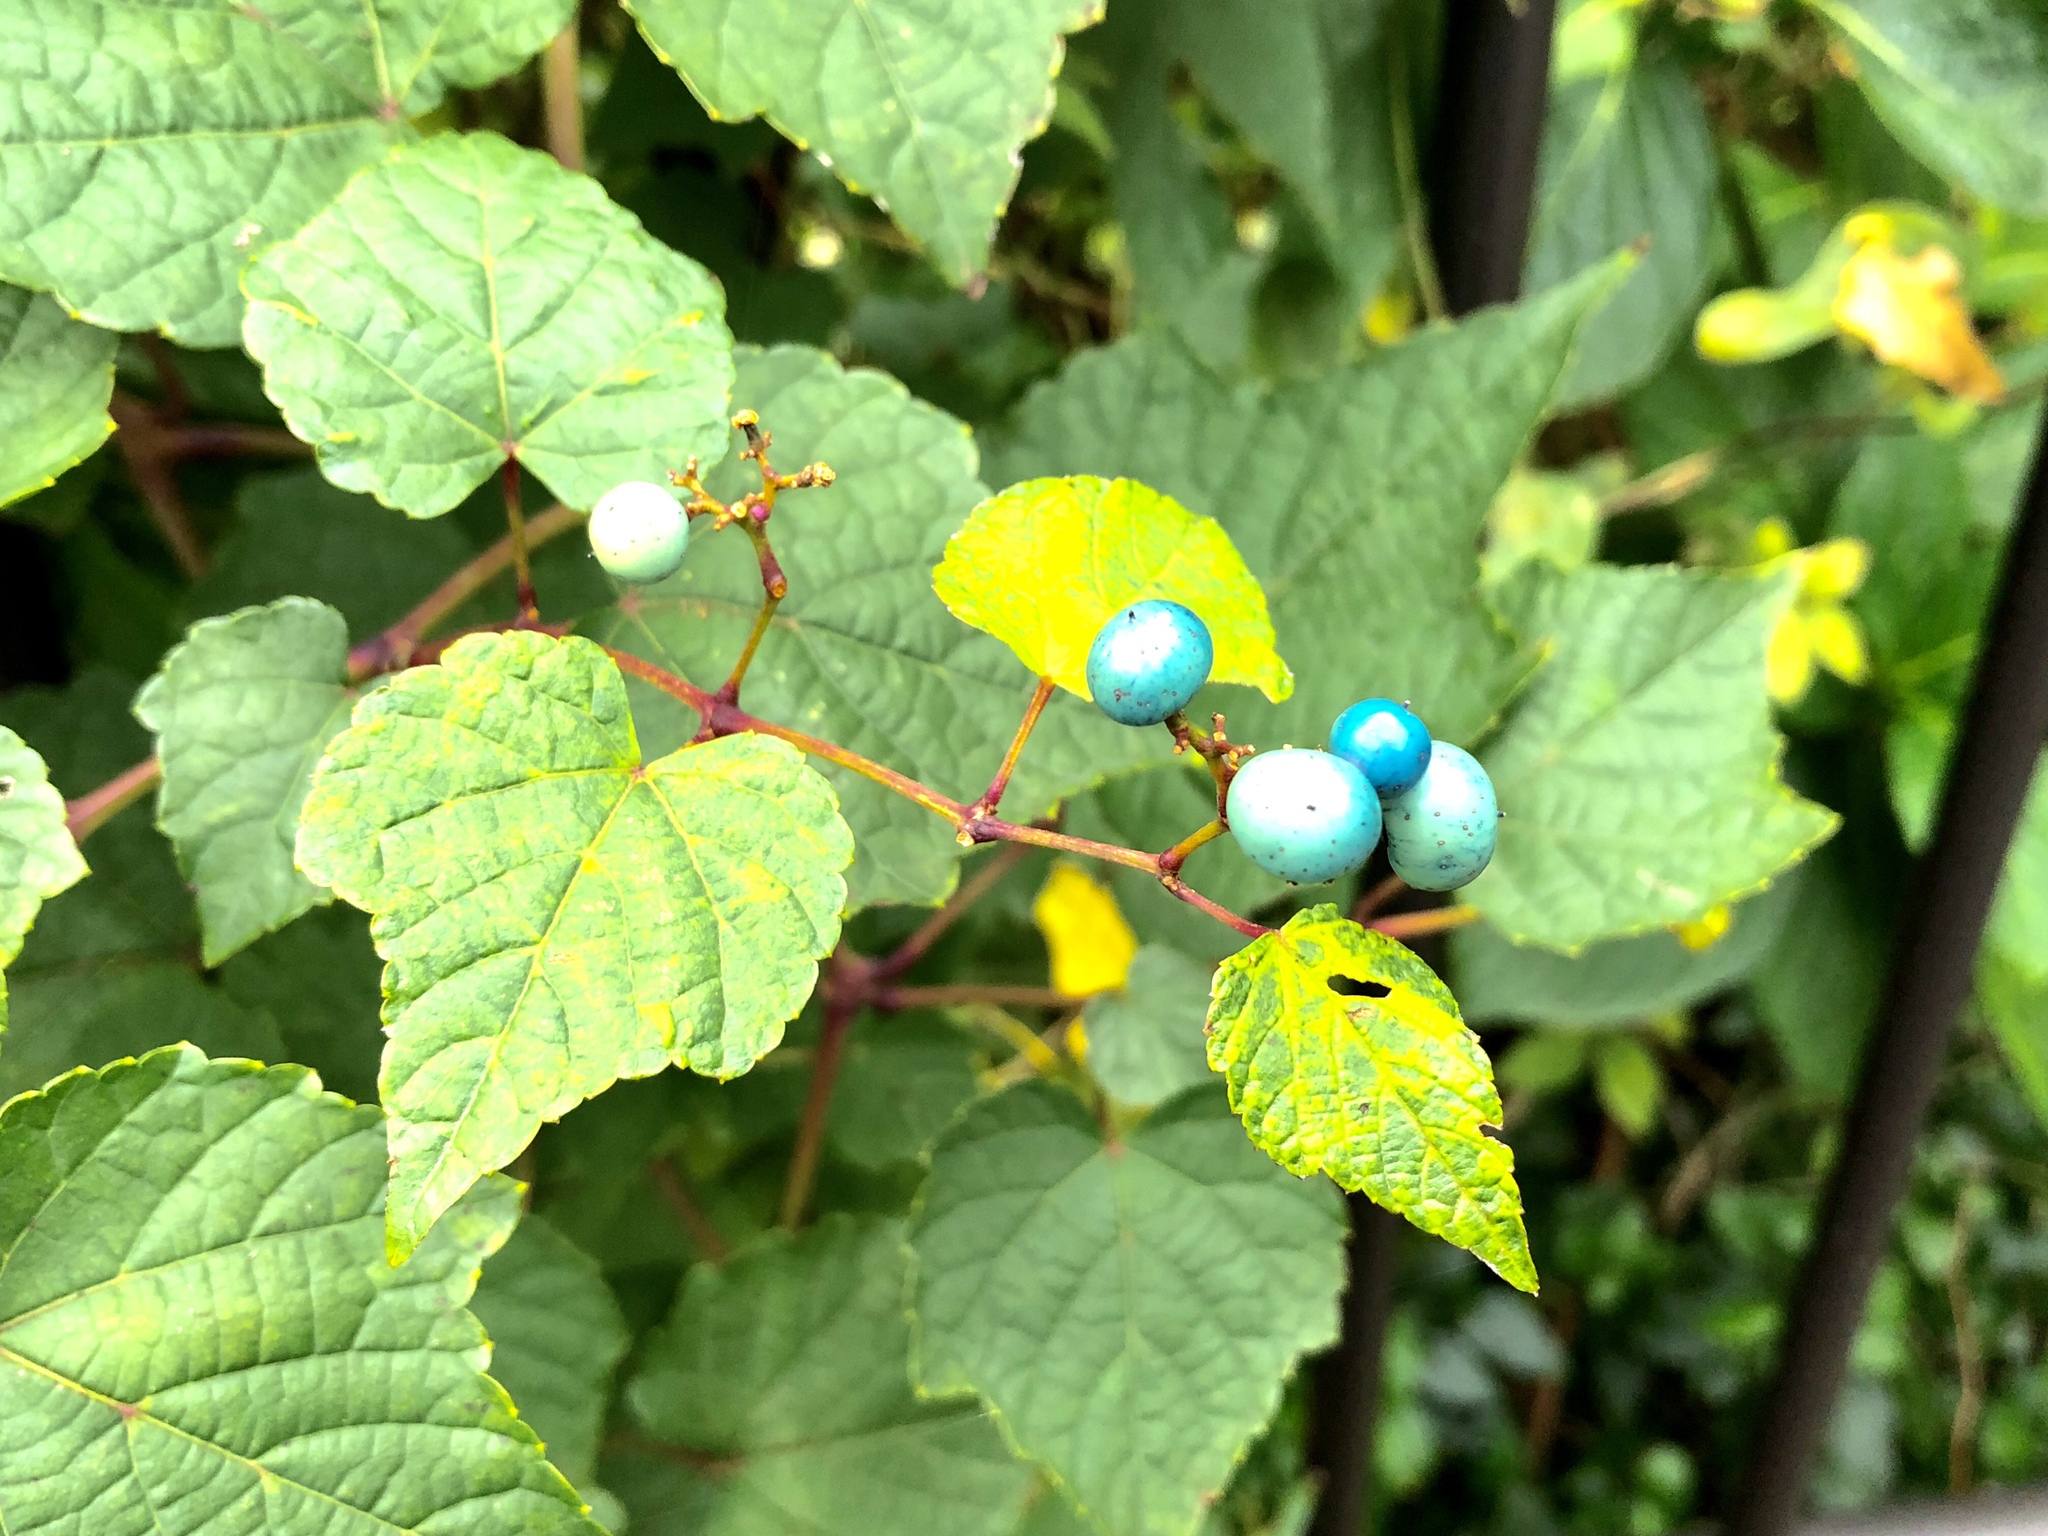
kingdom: Plantae
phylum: Tracheophyta
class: Magnoliopsida
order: Vitales
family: Vitaceae
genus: Ampelopsis
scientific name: Ampelopsis glandulosa
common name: Amur peppervine
